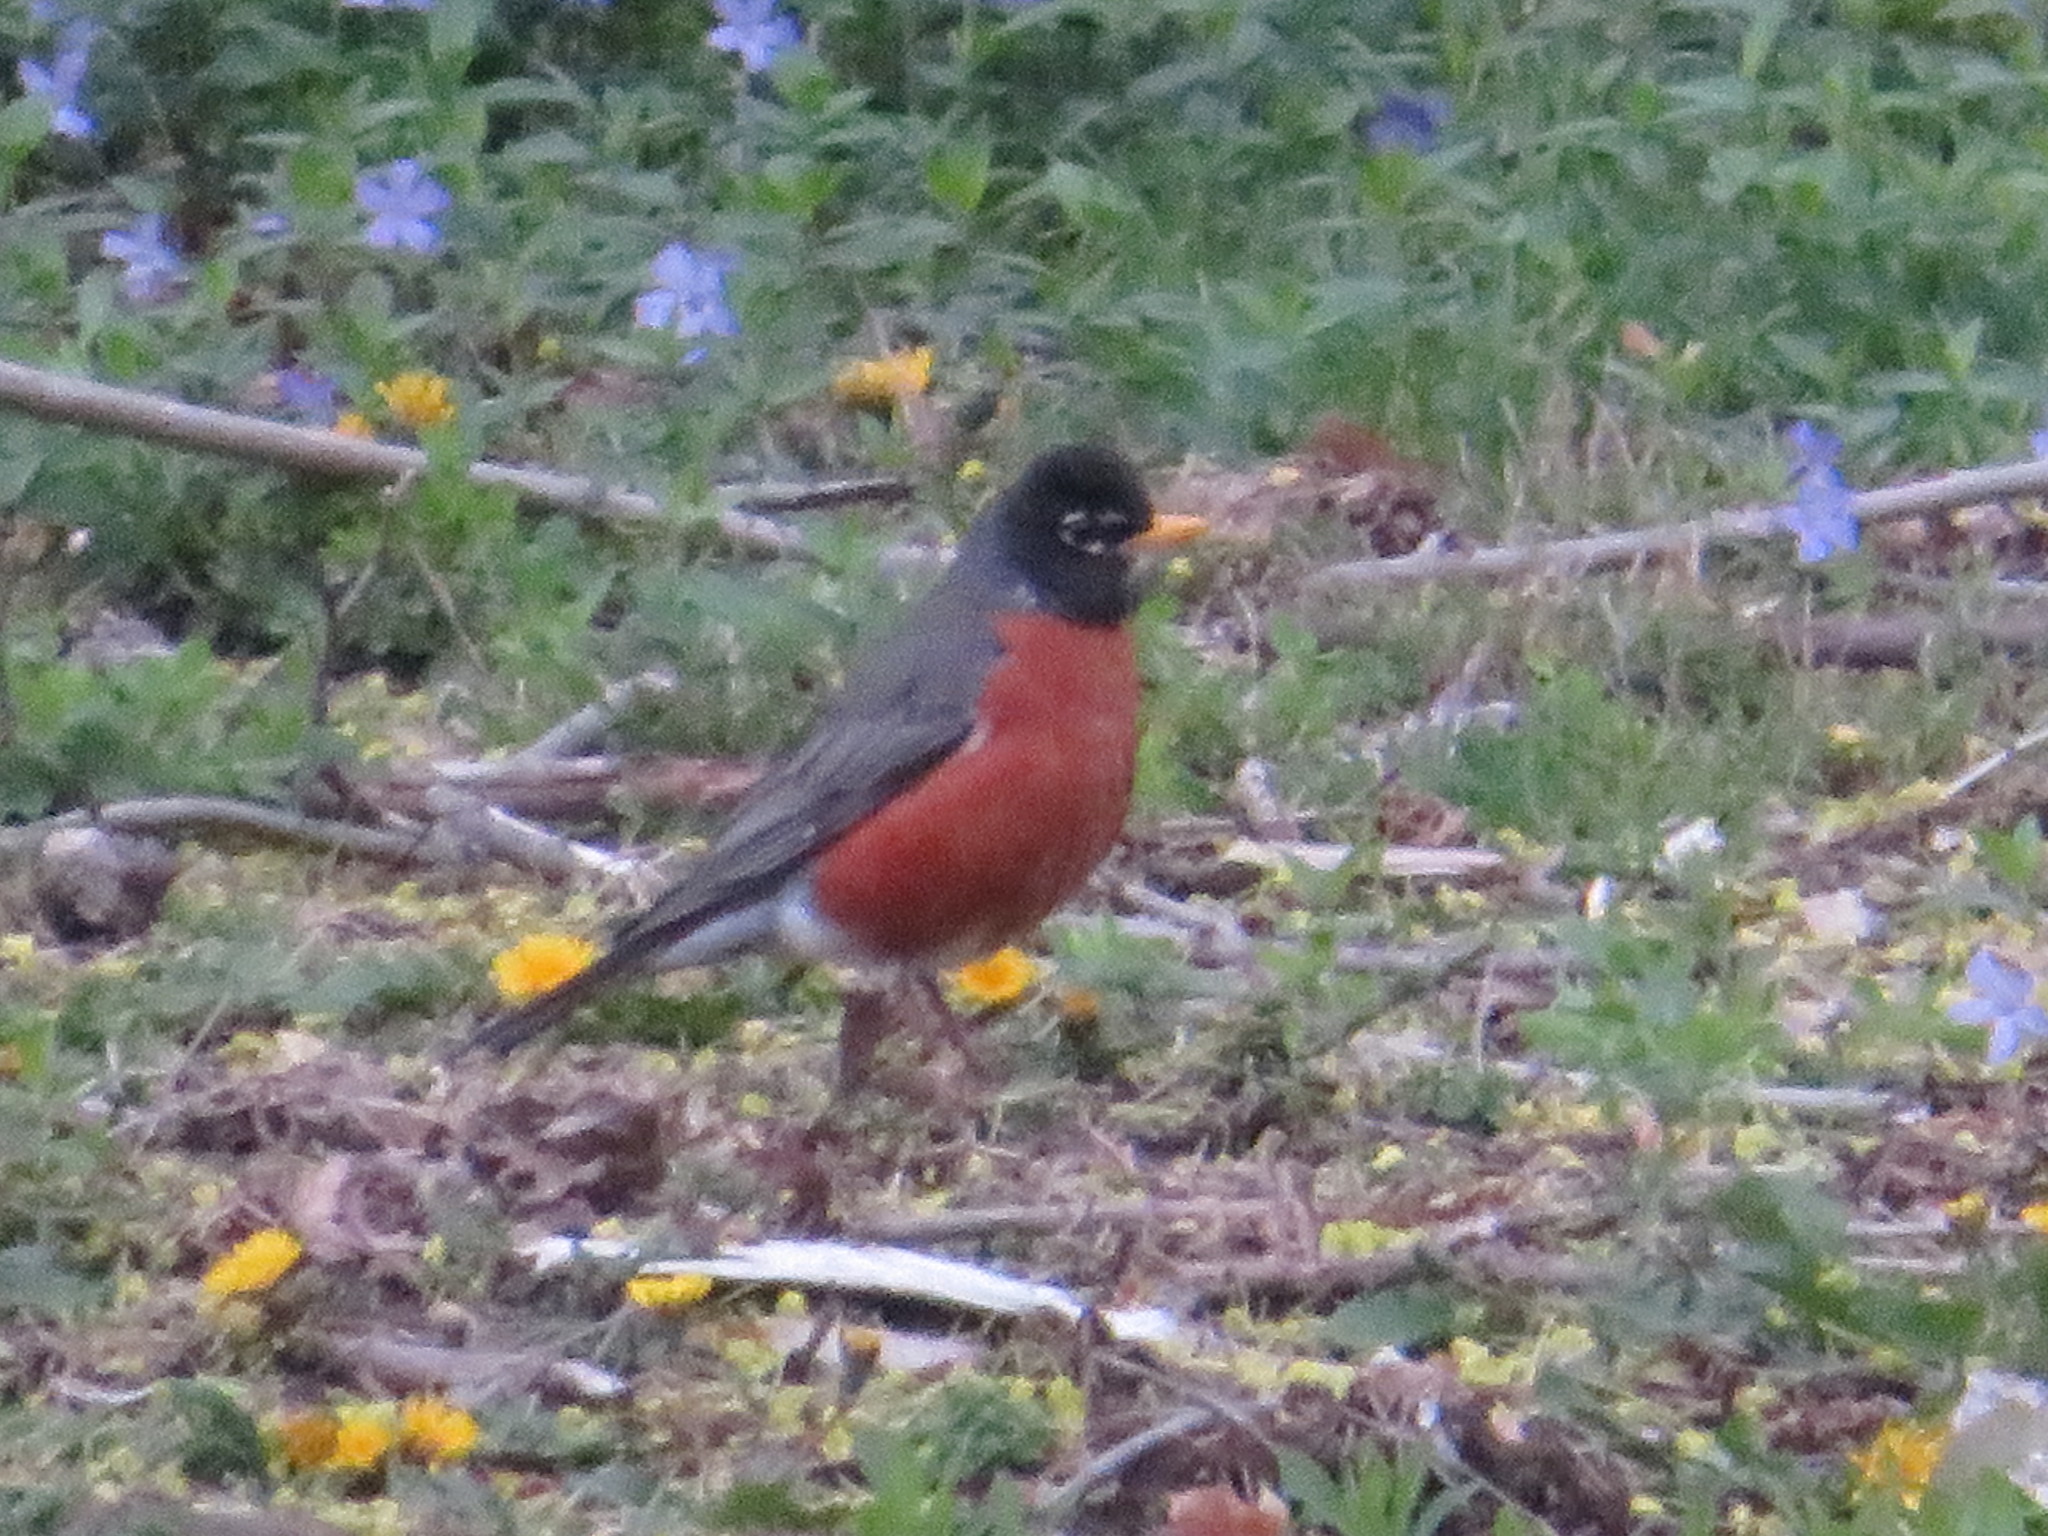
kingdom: Animalia
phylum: Chordata
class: Aves
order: Passeriformes
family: Turdidae
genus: Turdus
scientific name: Turdus migratorius
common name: American robin
